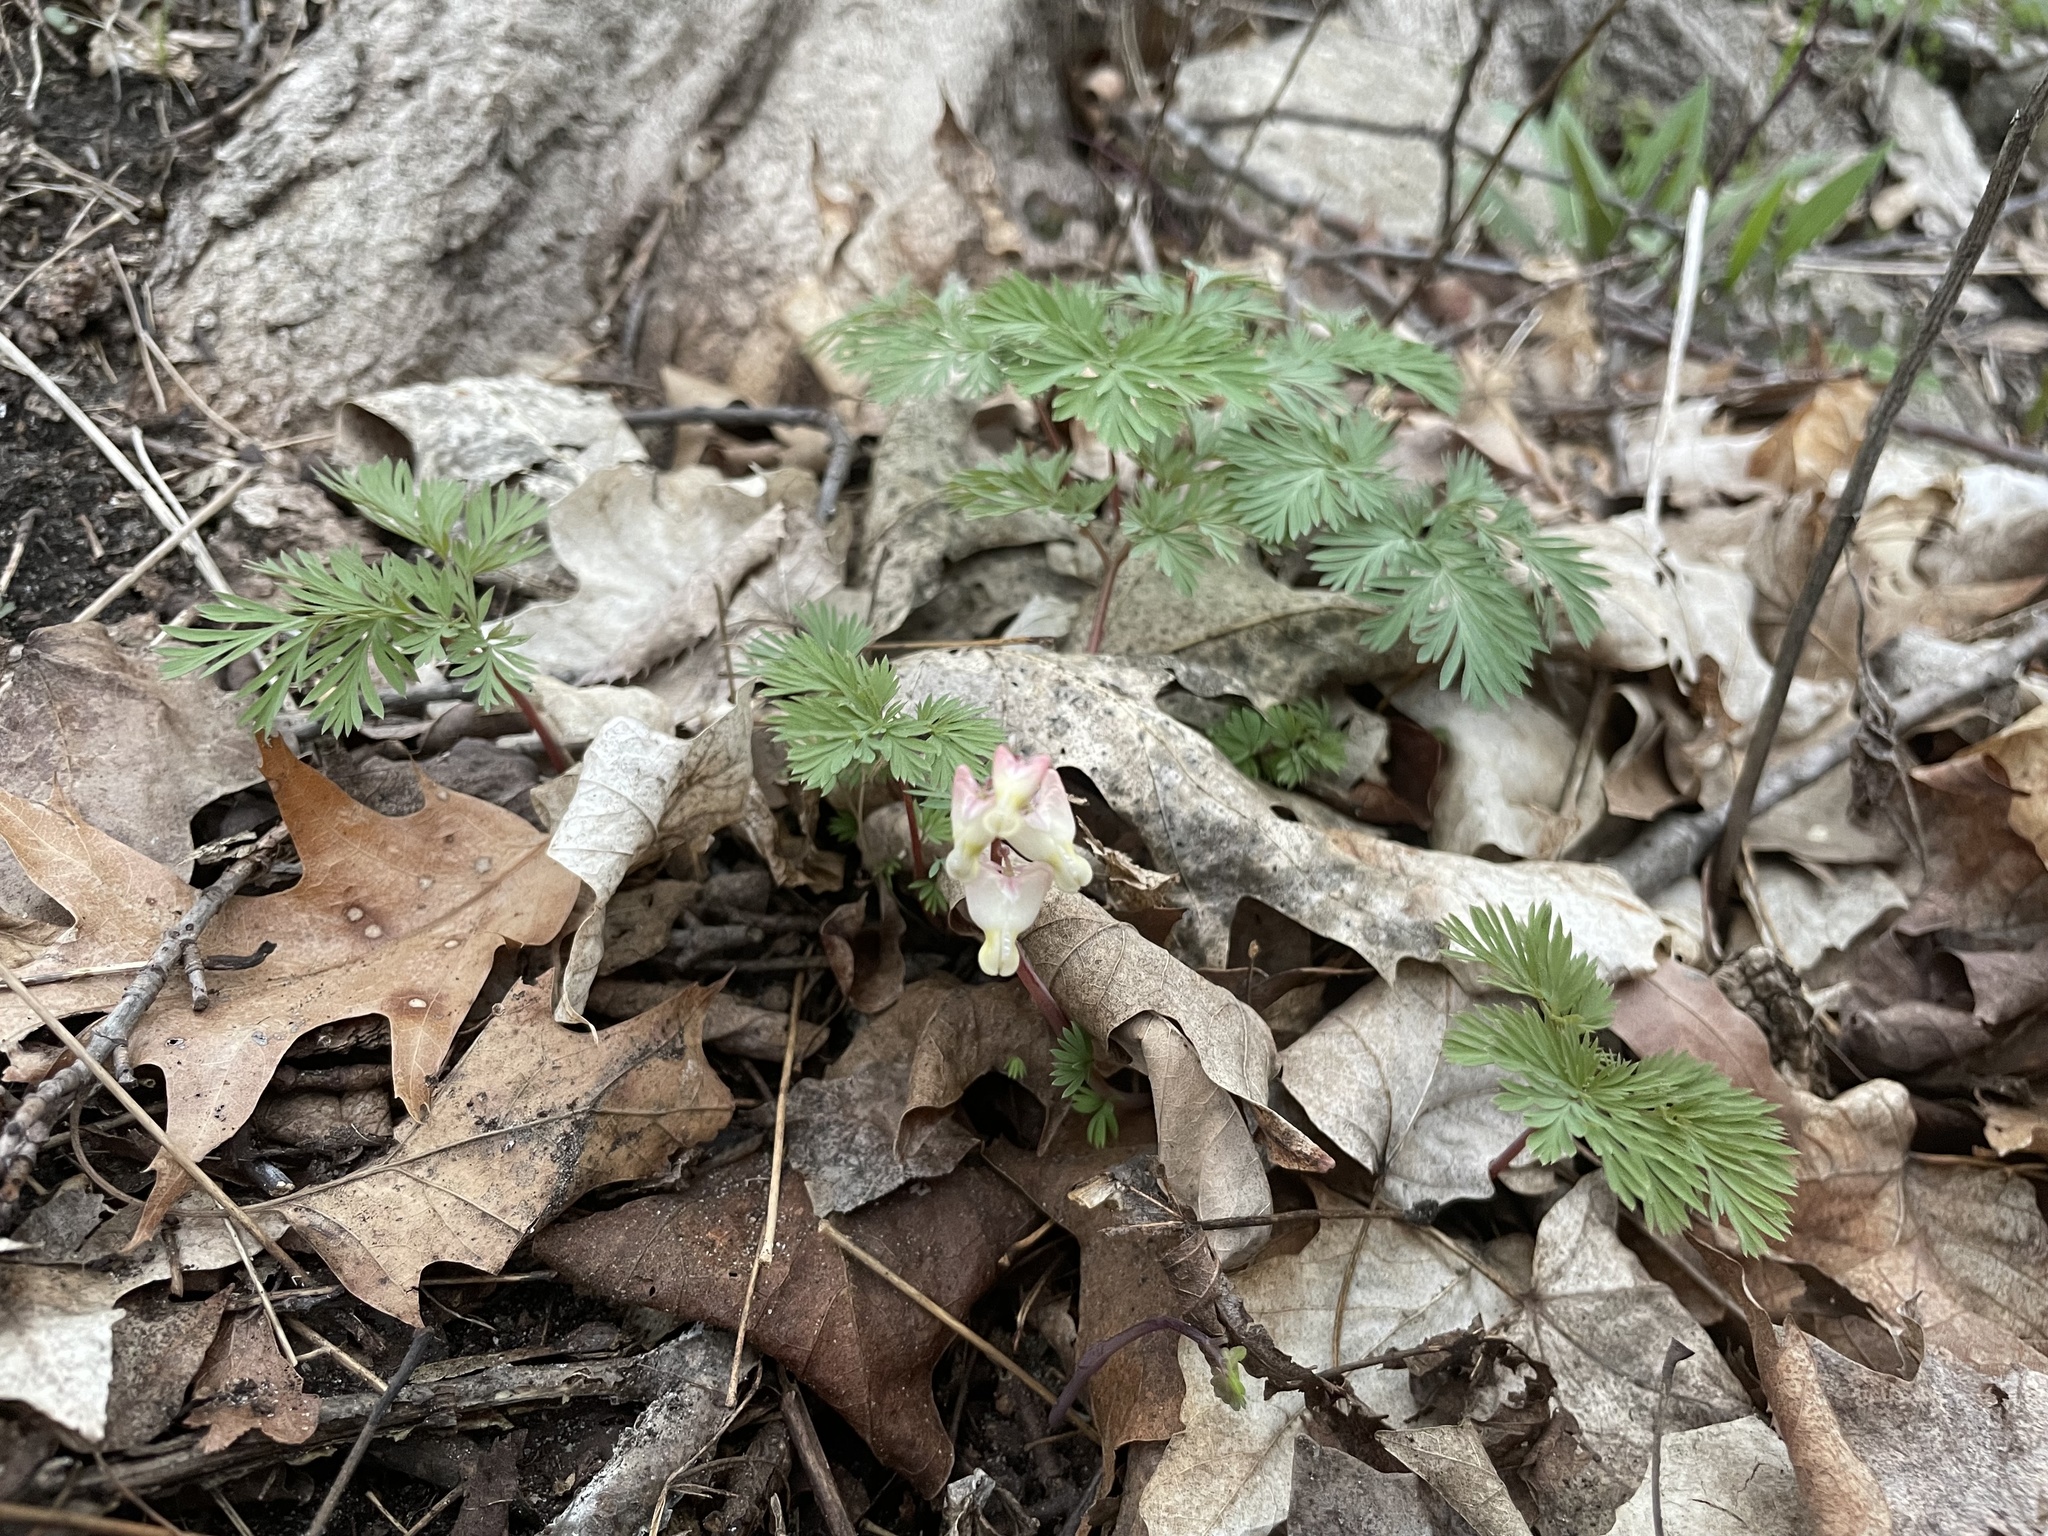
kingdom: Plantae
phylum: Tracheophyta
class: Magnoliopsida
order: Ranunculales
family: Papaveraceae
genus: Dicentra
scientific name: Dicentra cucullaria
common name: Dutchman's breeches
